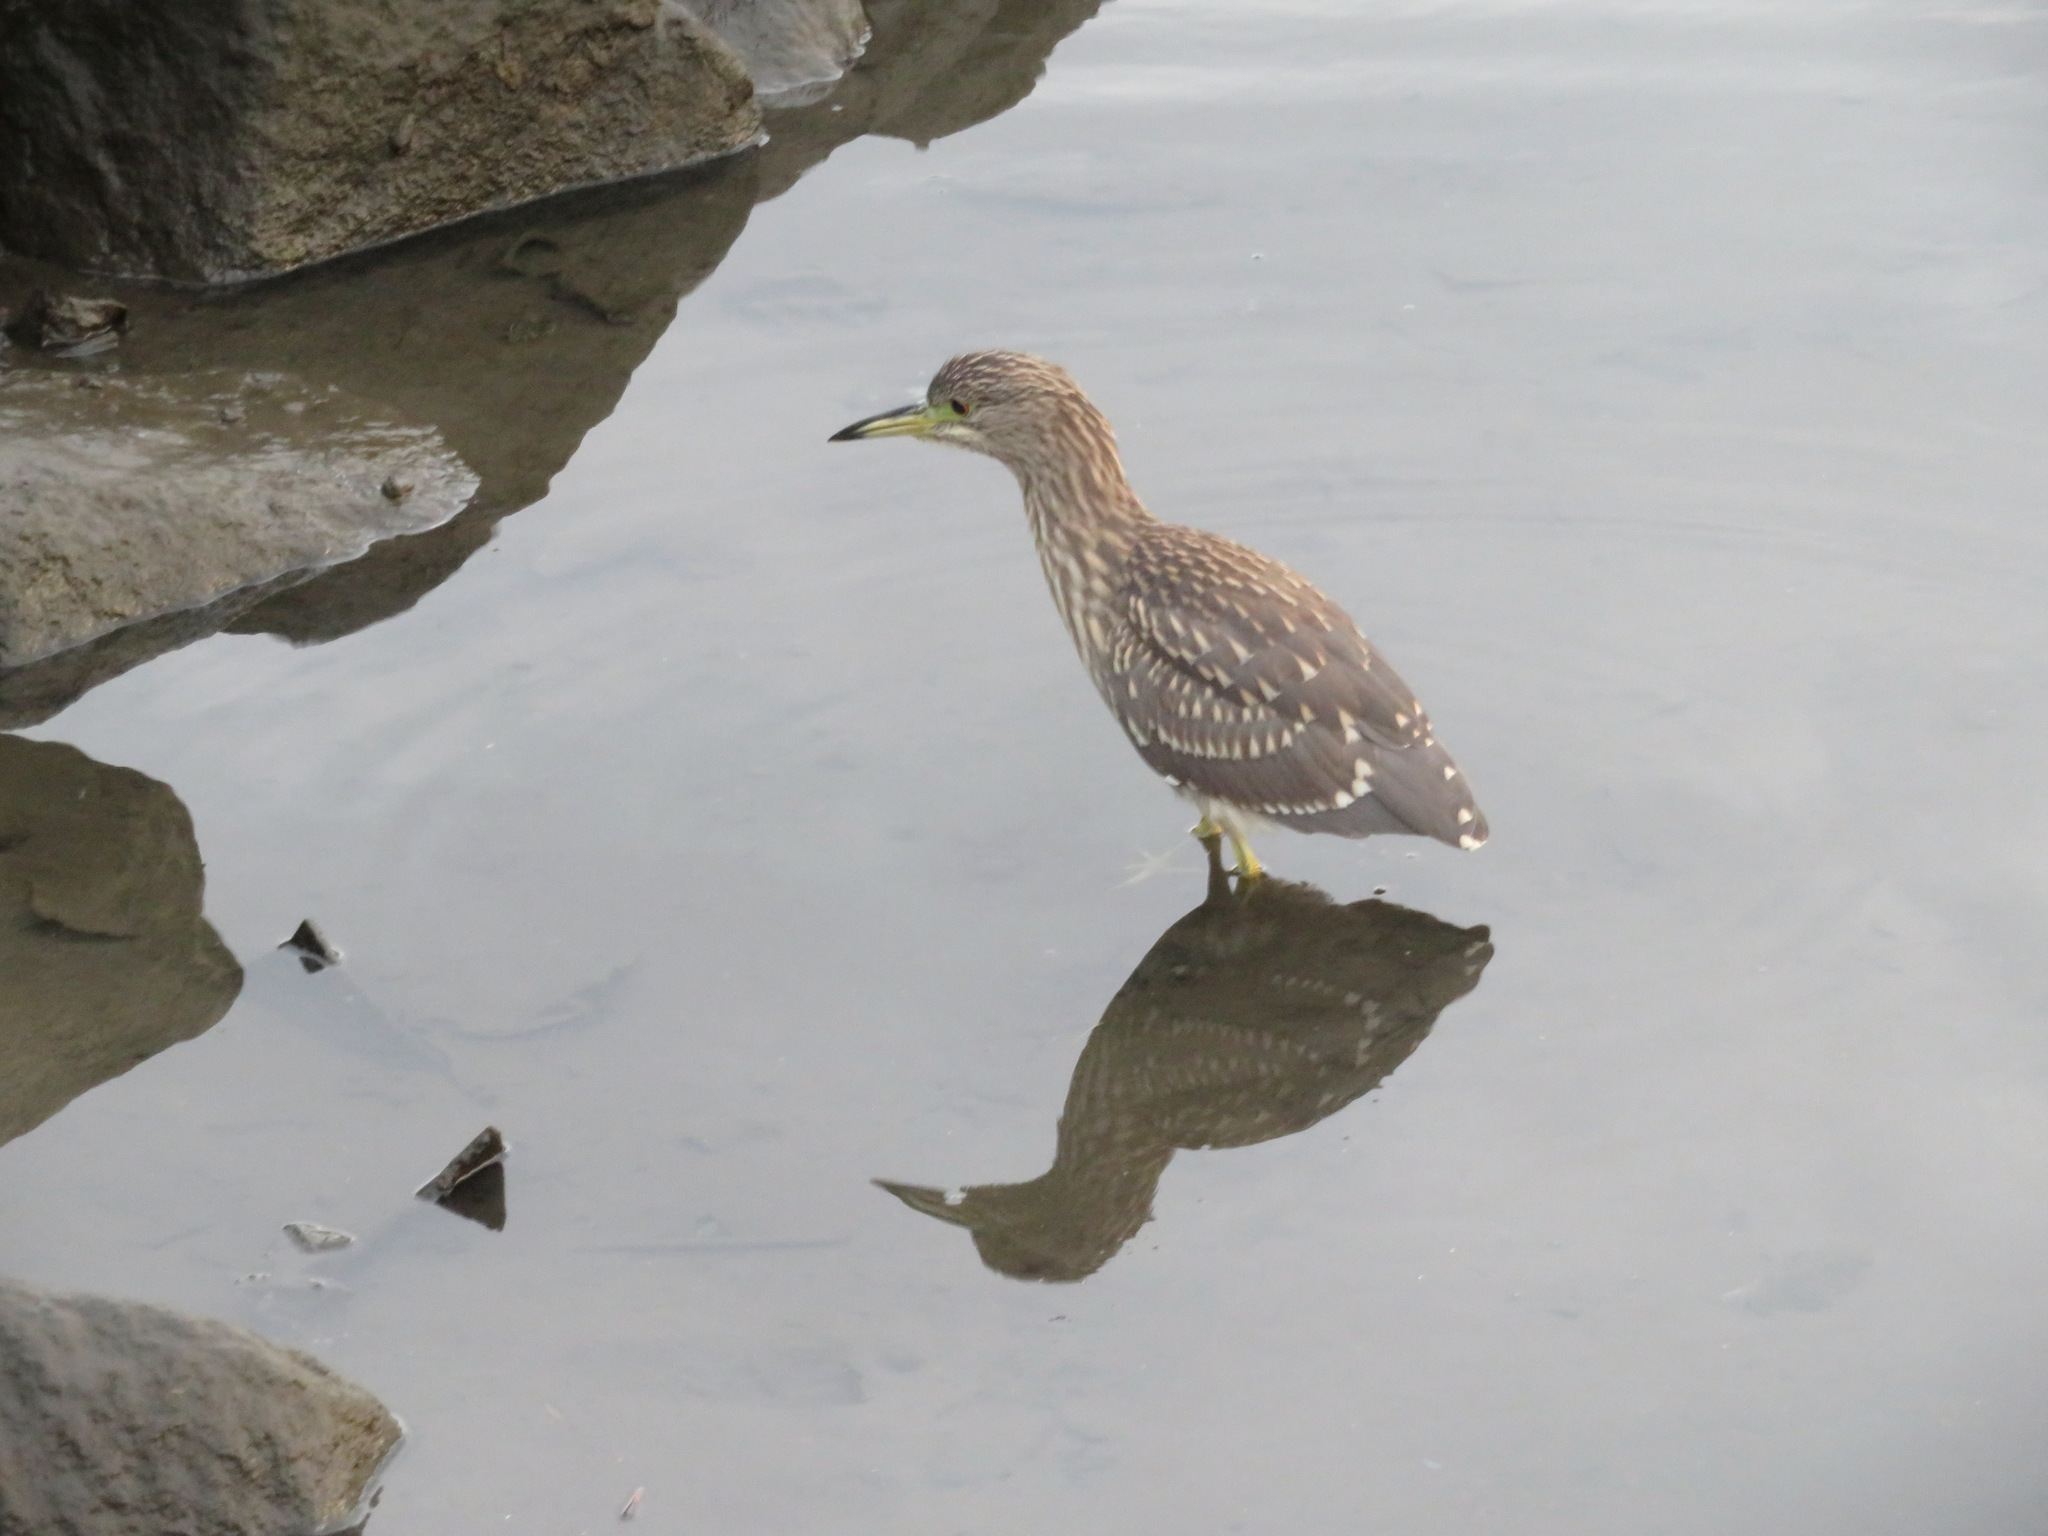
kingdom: Animalia
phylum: Chordata
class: Aves
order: Pelecaniformes
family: Ardeidae
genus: Nycticorax
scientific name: Nycticorax nycticorax
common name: Black-crowned night heron
